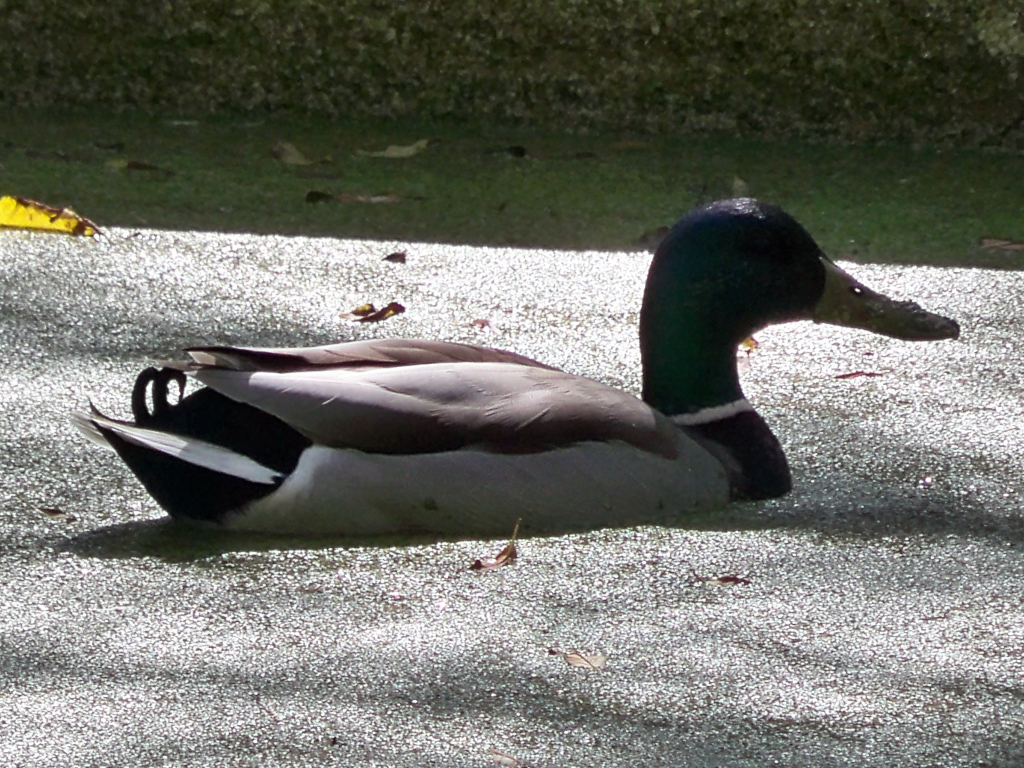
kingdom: Animalia
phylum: Chordata
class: Aves
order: Anseriformes
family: Anatidae
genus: Anas
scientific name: Anas platyrhynchos
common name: Mallard
